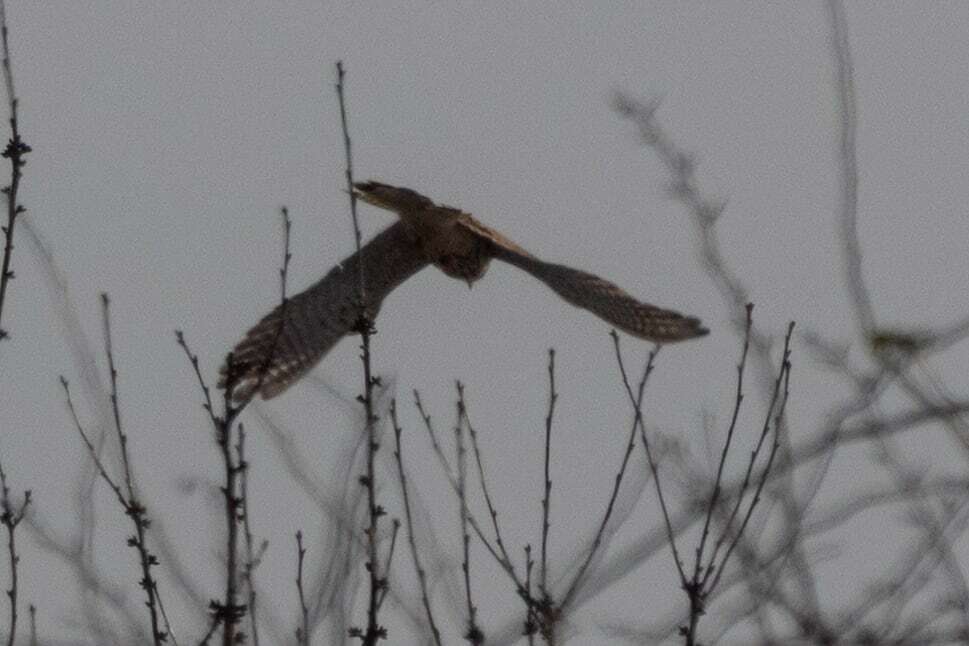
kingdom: Animalia
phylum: Chordata
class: Aves
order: Falconiformes
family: Falconidae
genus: Falco
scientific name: Falco tinnunculus
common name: Common kestrel
